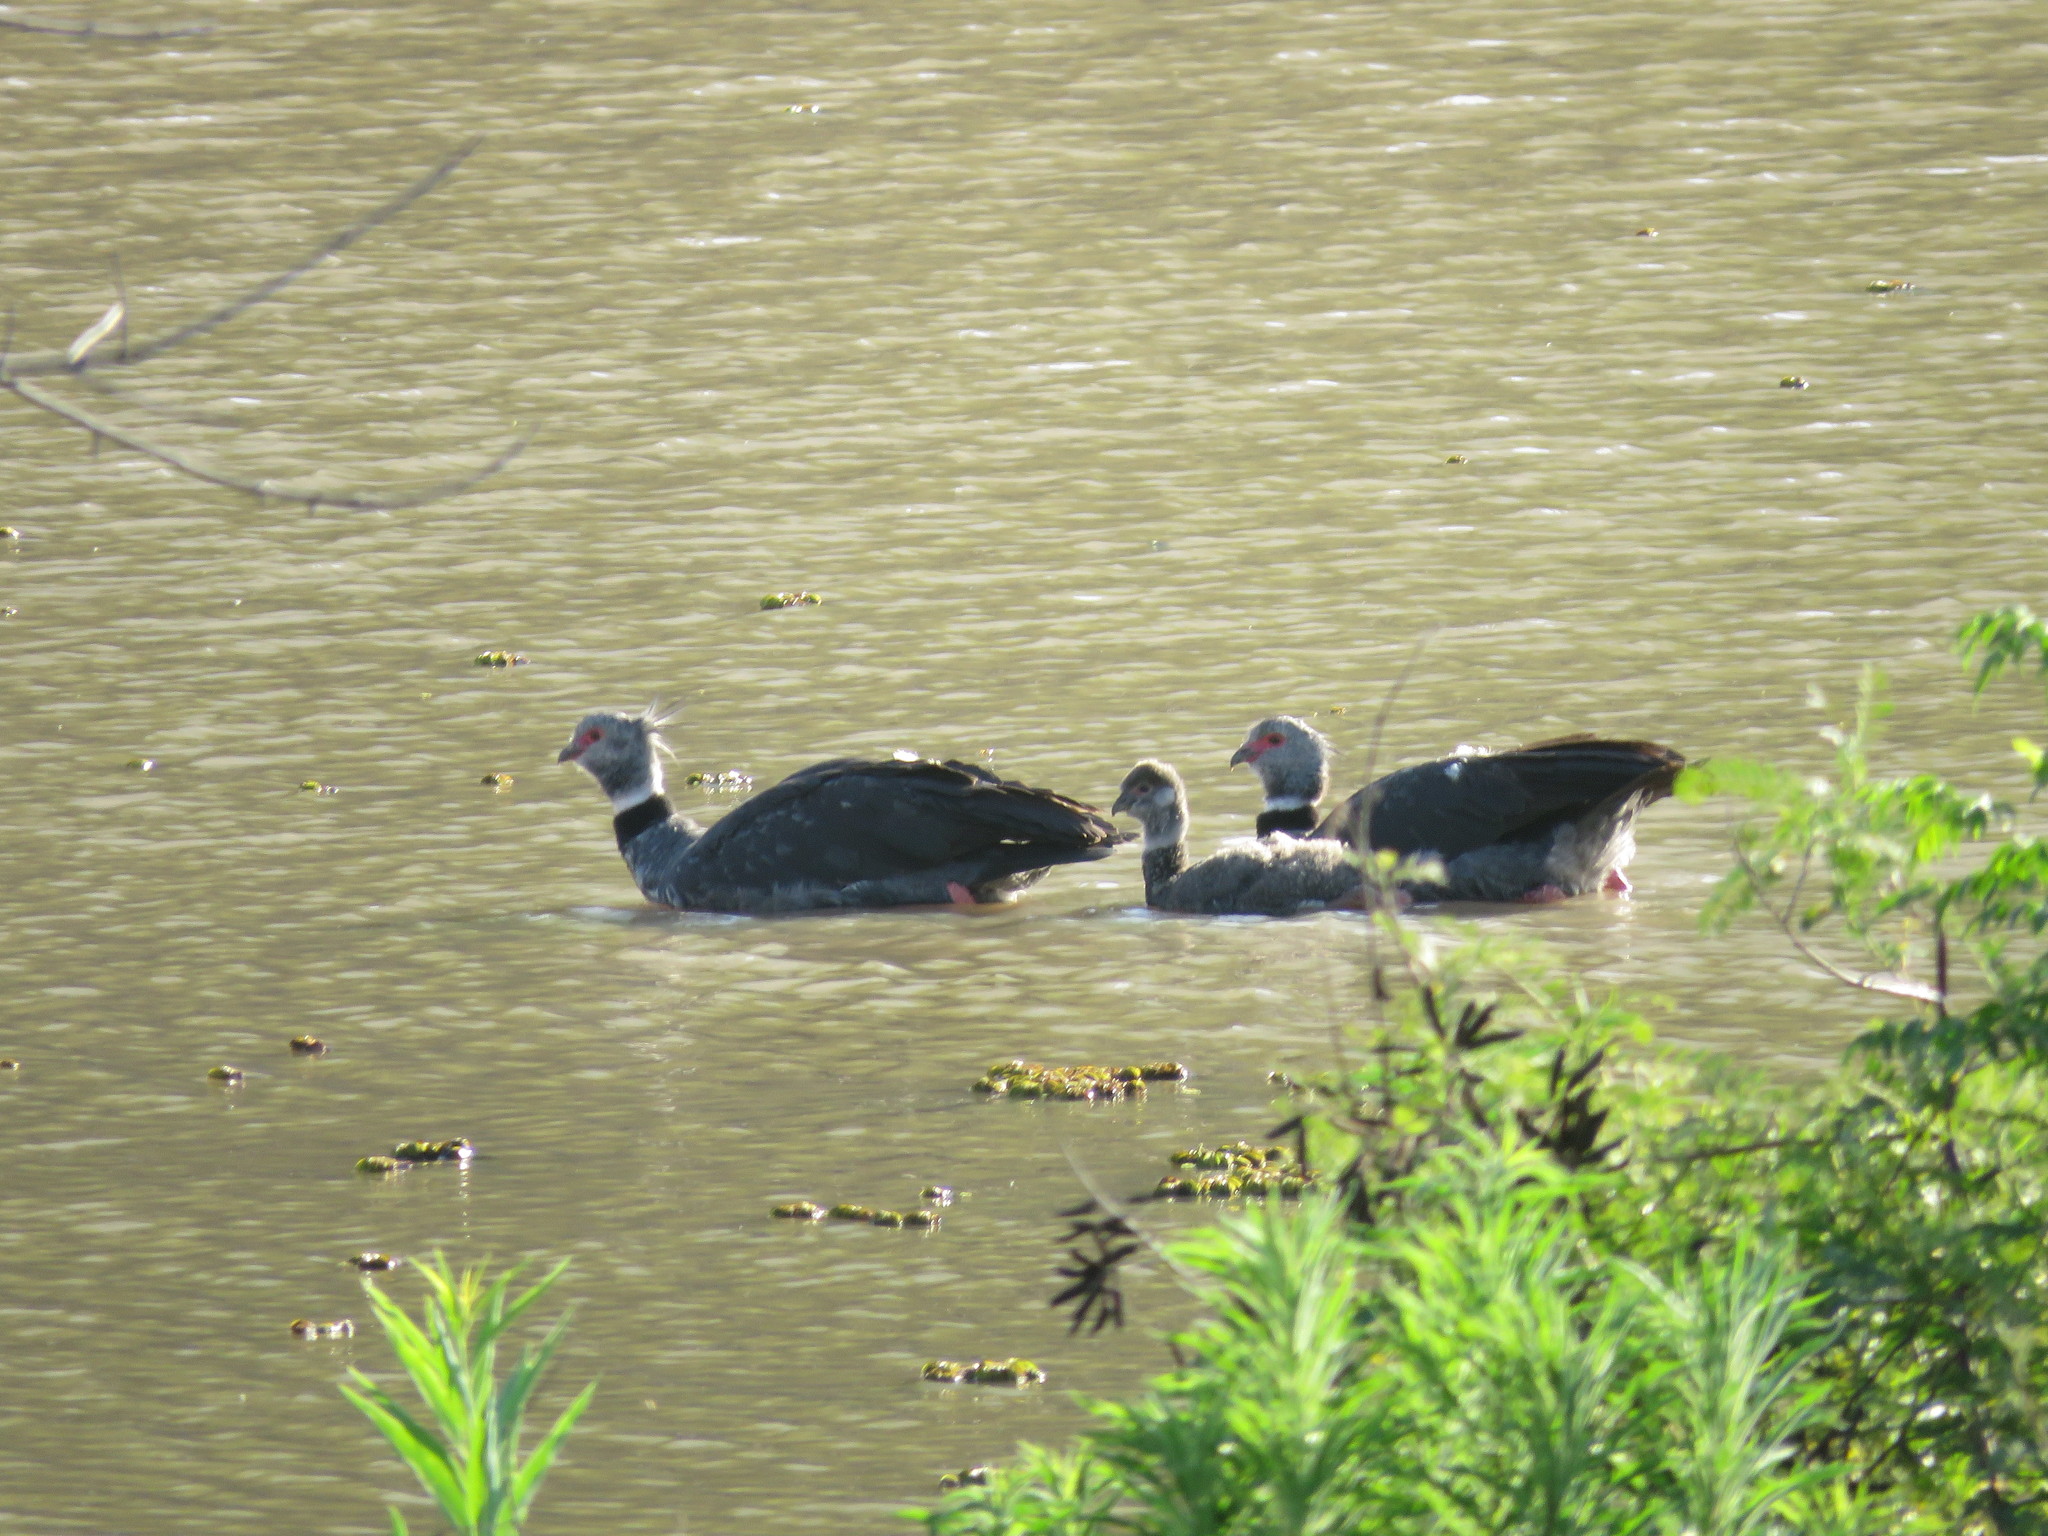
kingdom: Animalia
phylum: Chordata
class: Aves
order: Anseriformes
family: Anhimidae
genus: Chauna
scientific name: Chauna torquata
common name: Southern screamer
